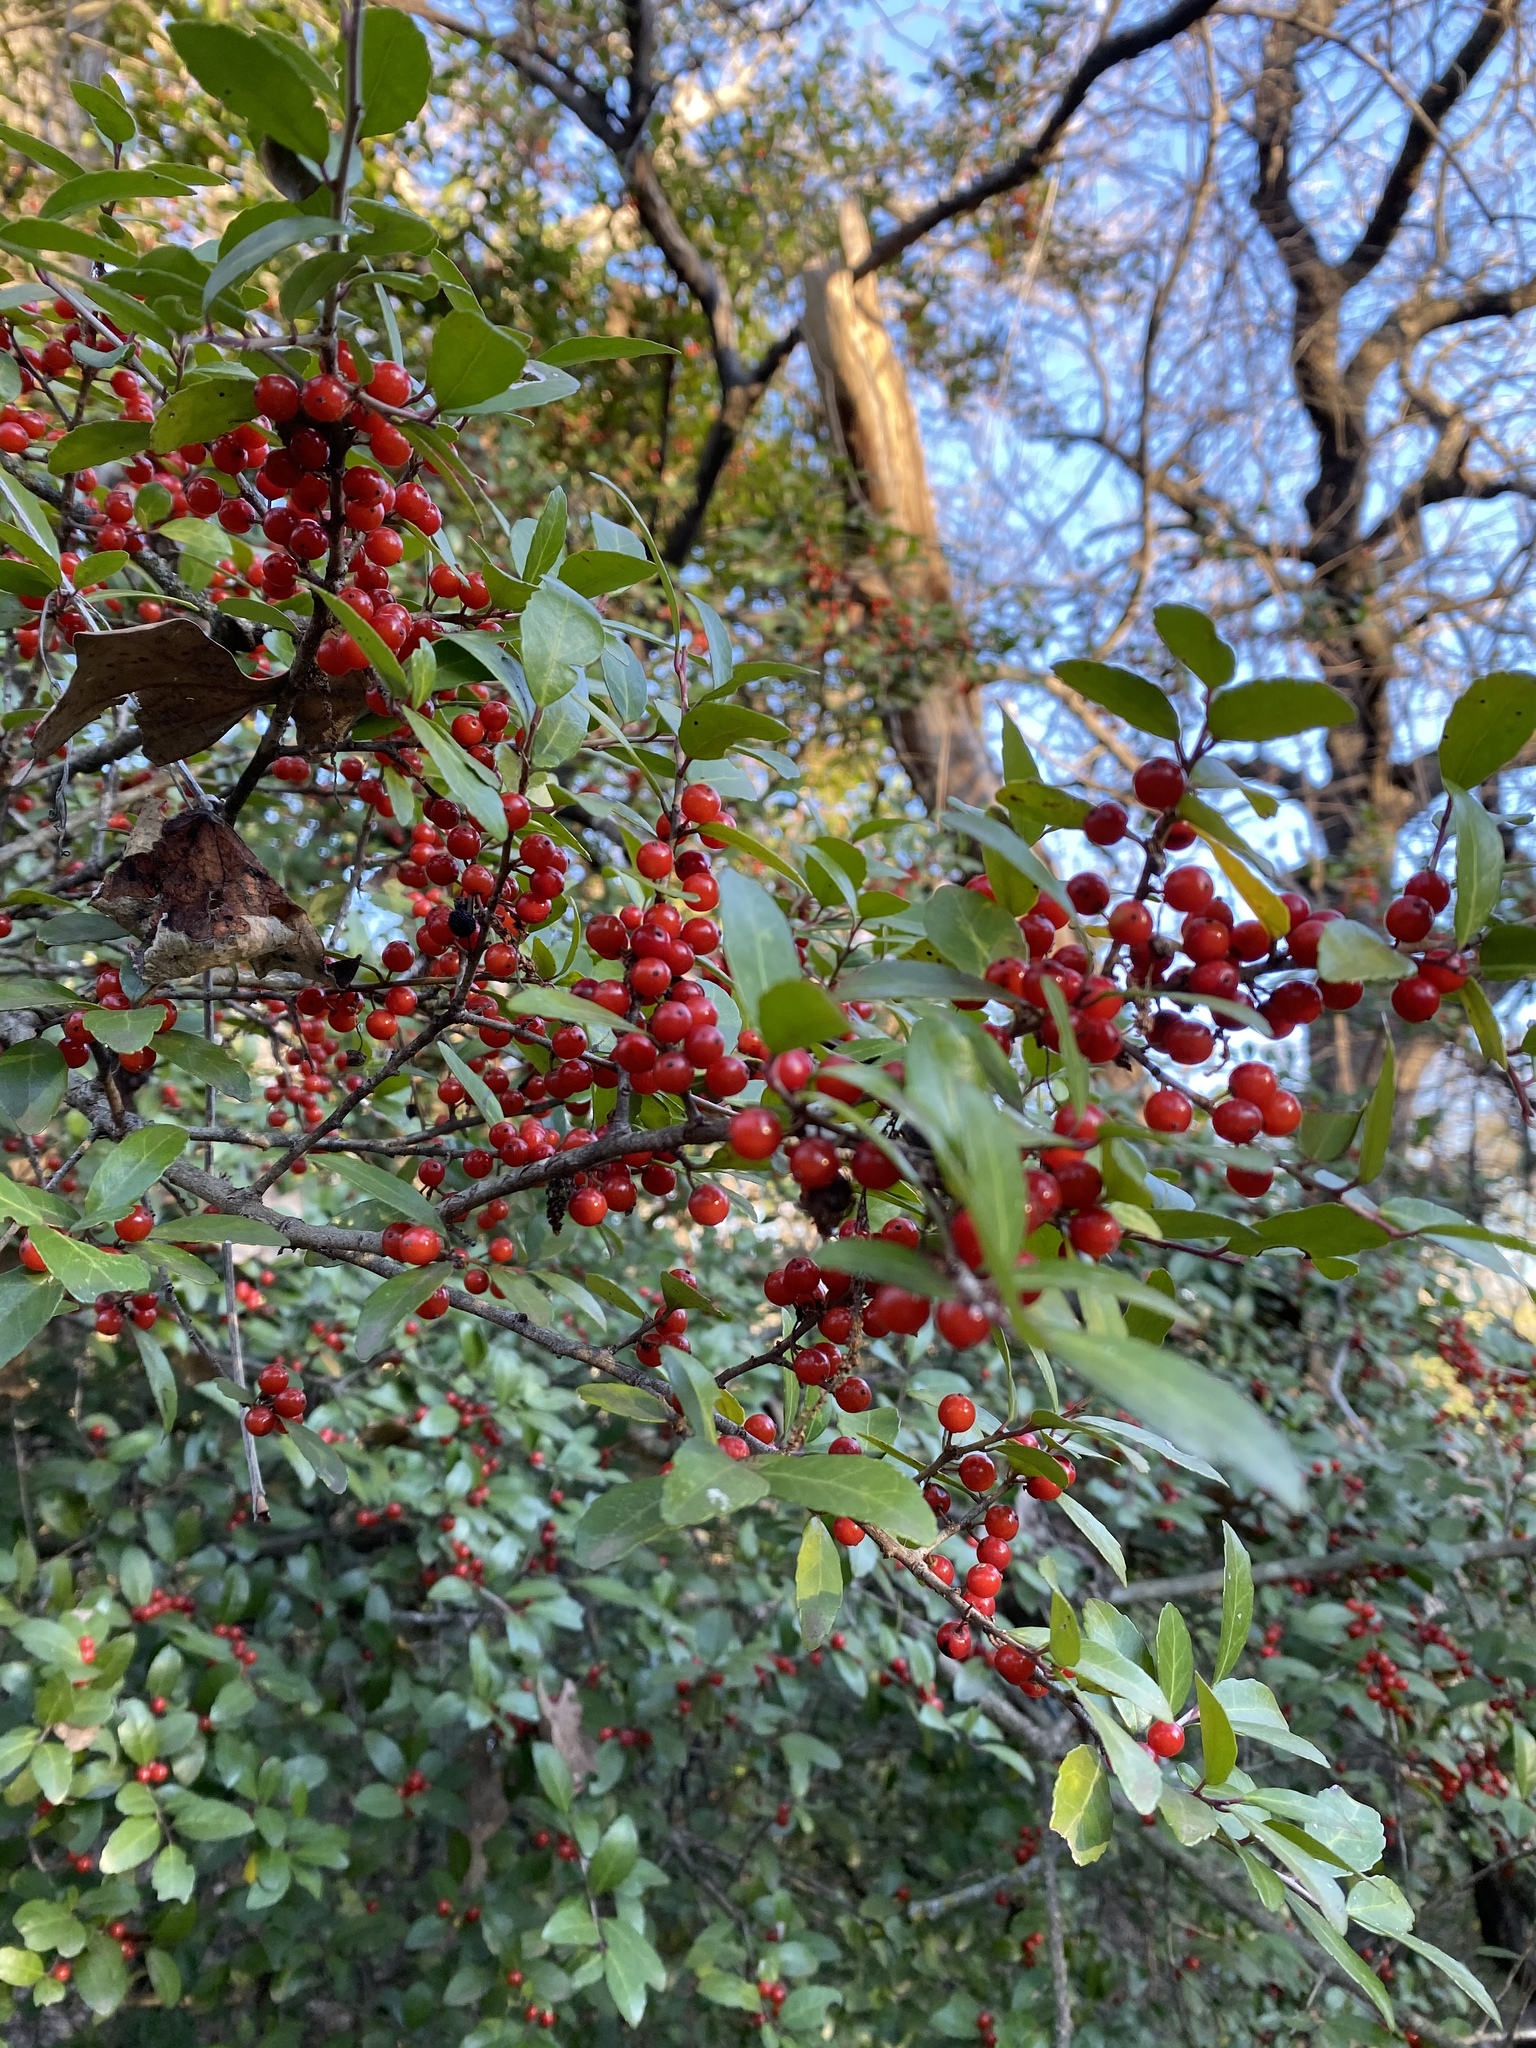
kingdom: Plantae
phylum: Tracheophyta
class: Magnoliopsida
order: Aquifoliales
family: Aquifoliaceae
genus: Ilex
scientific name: Ilex vomitoria
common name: Yaupon holly
